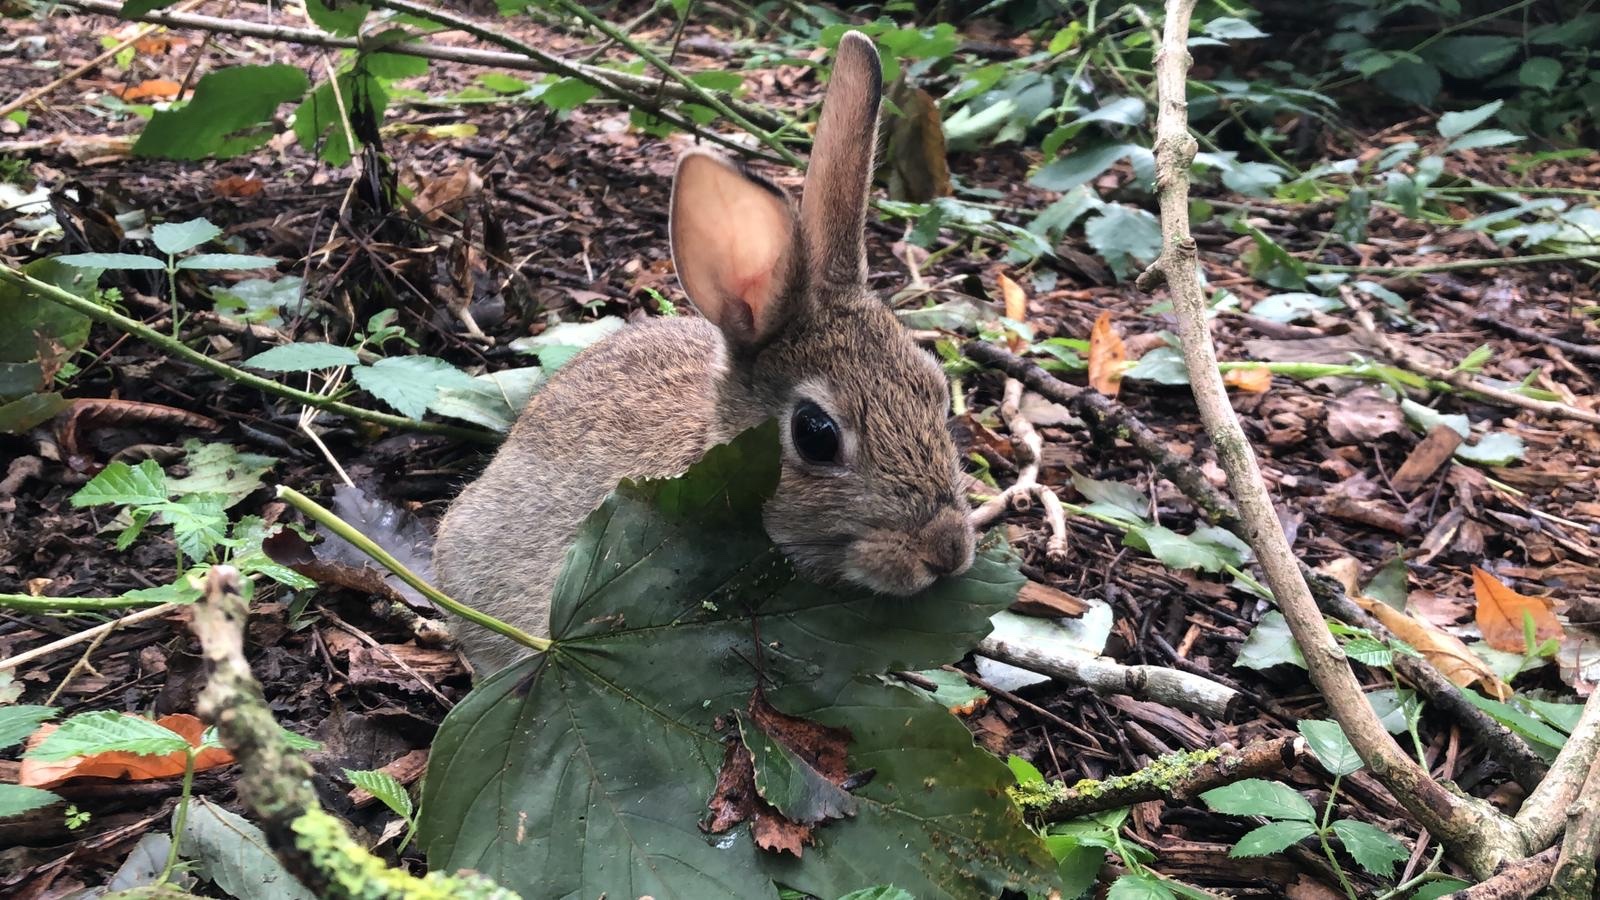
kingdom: Animalia
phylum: Chordata
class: Mammalia
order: Lagomorpha
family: Leporidae
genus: Oryctolagus
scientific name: Oryctolagus cuniculus
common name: European rabbit
